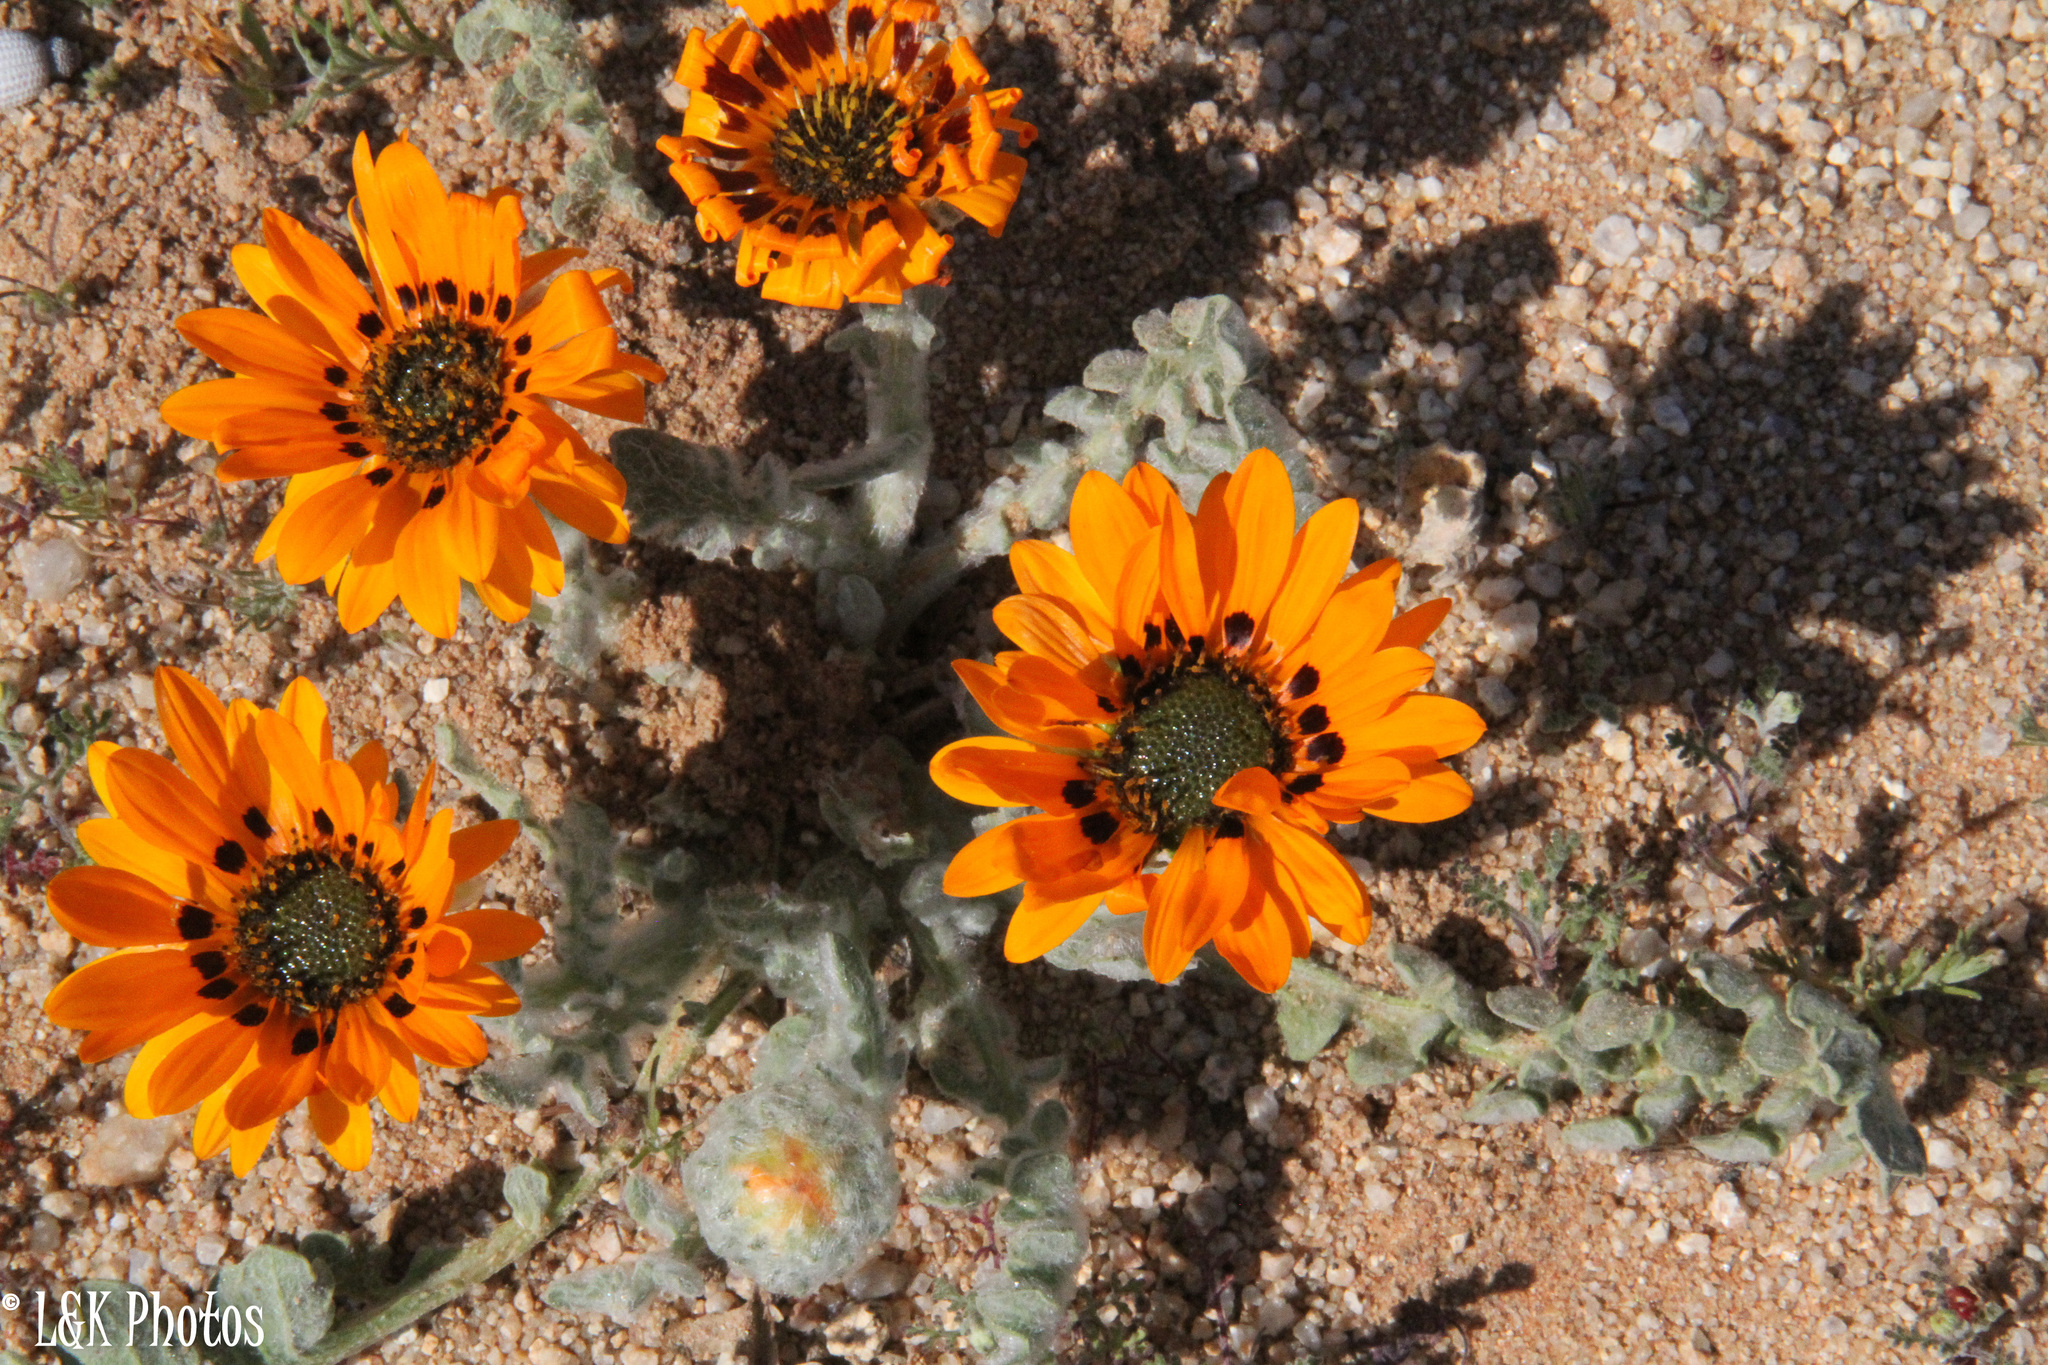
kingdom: Plantae
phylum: Tracheophyta
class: Magnoliopsida
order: Asterales
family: Asteraceae
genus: Arctotis
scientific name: Arctotis fastuosa
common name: Monarch of the veld
